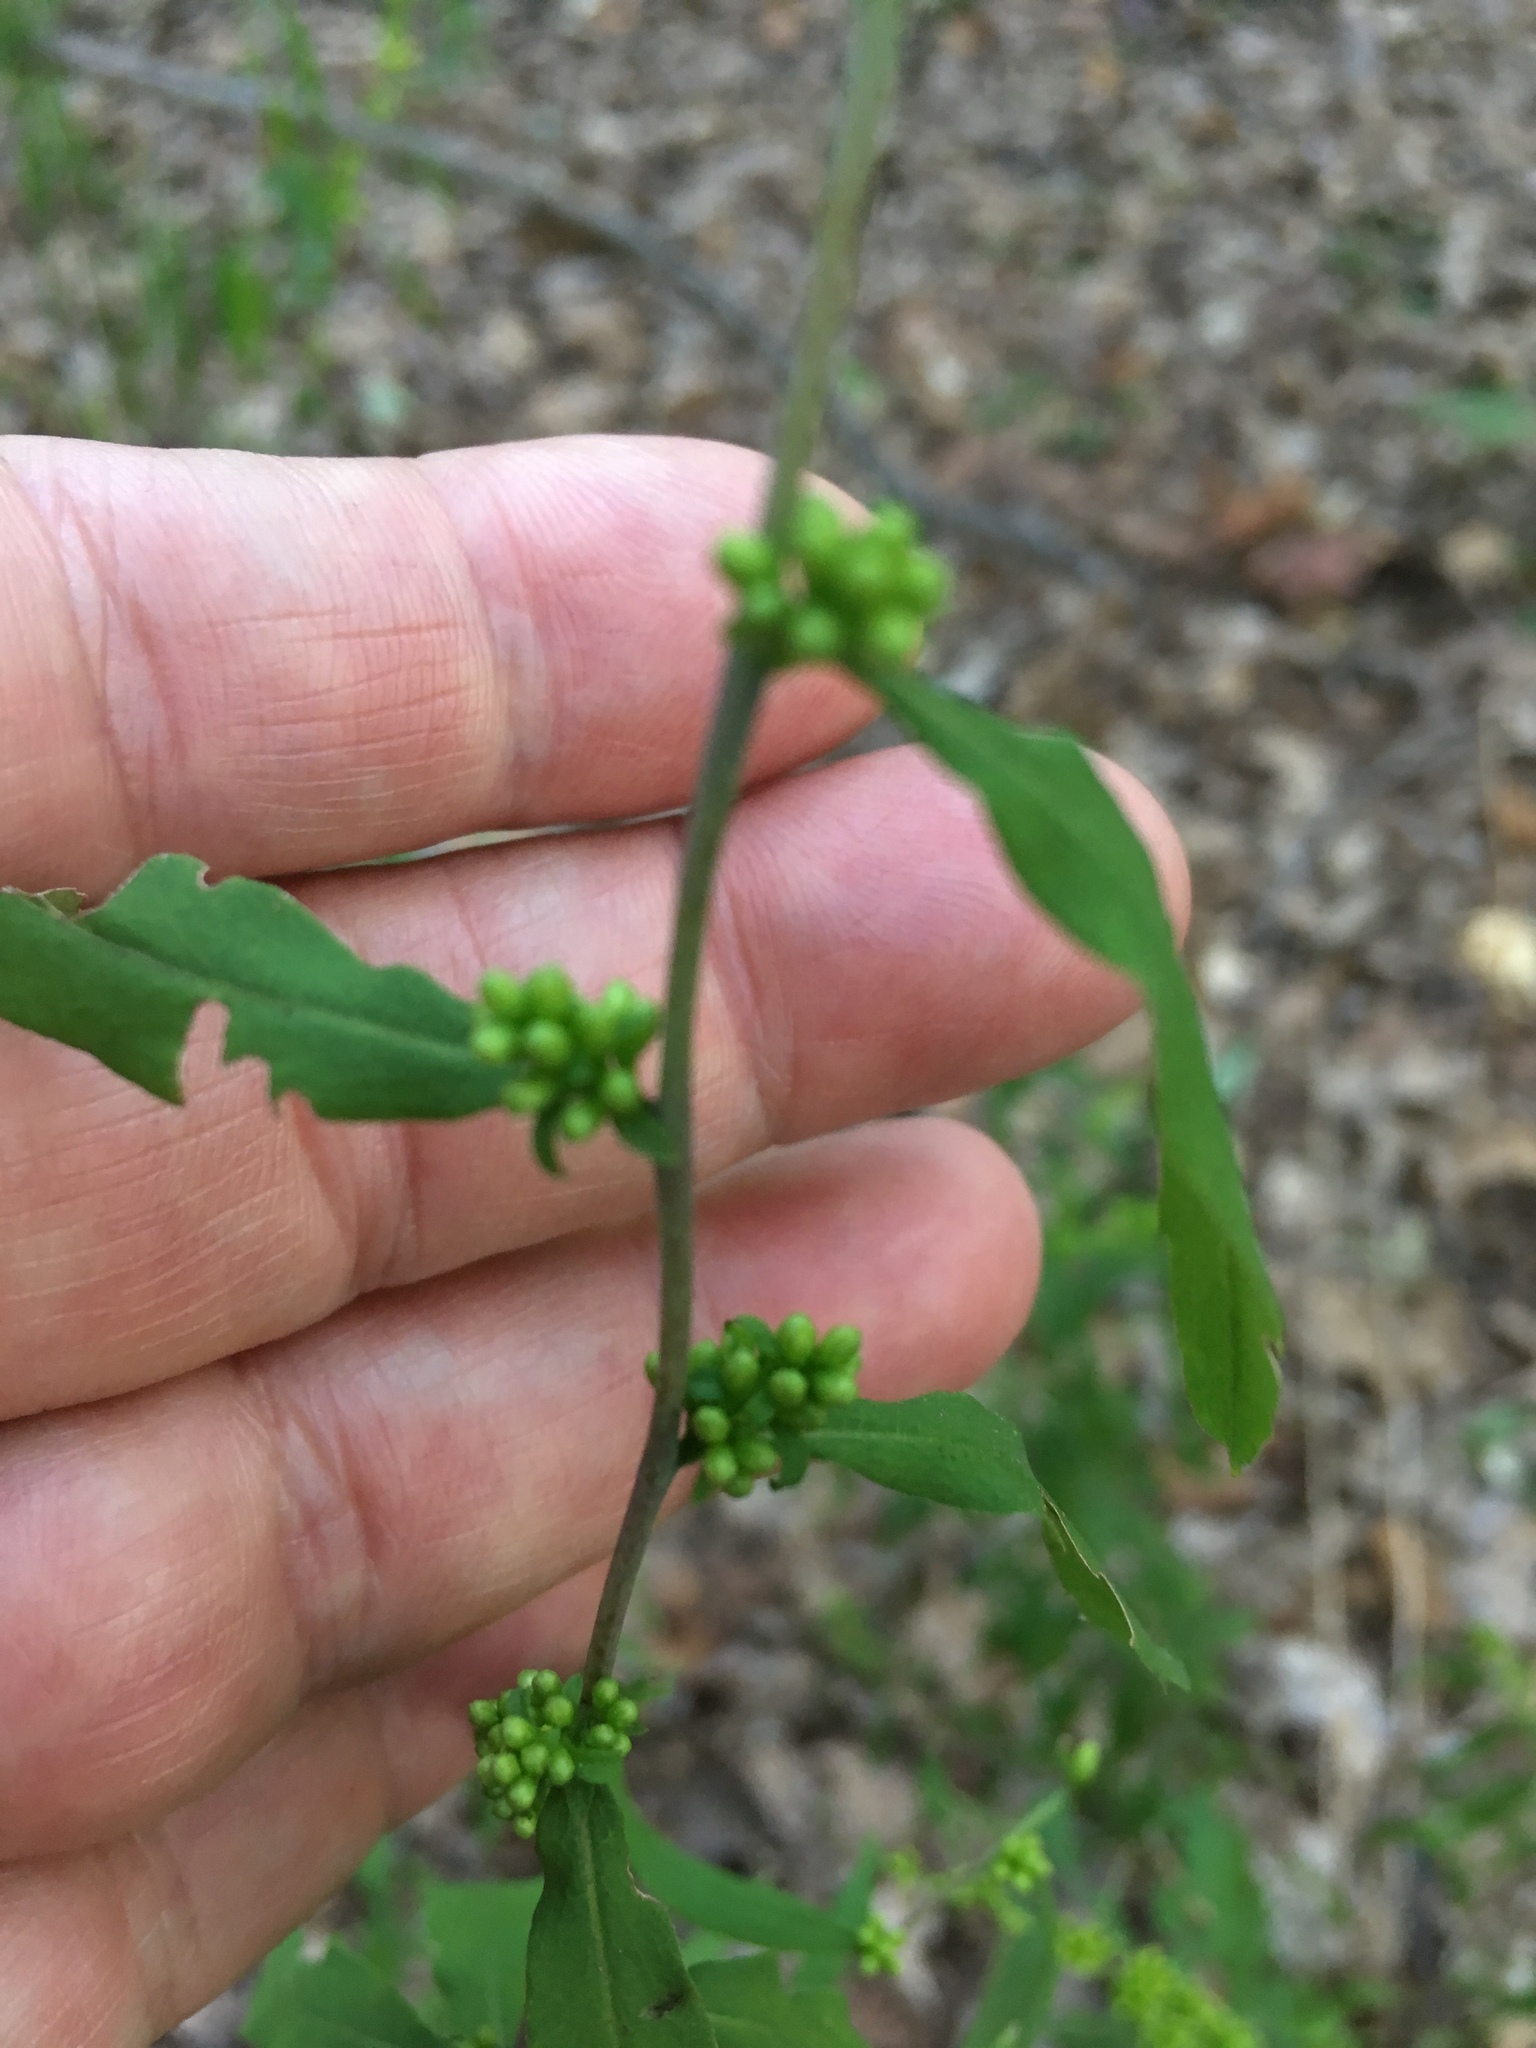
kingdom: Plantae
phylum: Tracheophyta
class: Magnoliopsida
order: Asterales
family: Asteraceae
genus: Solidago
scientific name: Solidago caesia
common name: Woodland goldenrod
